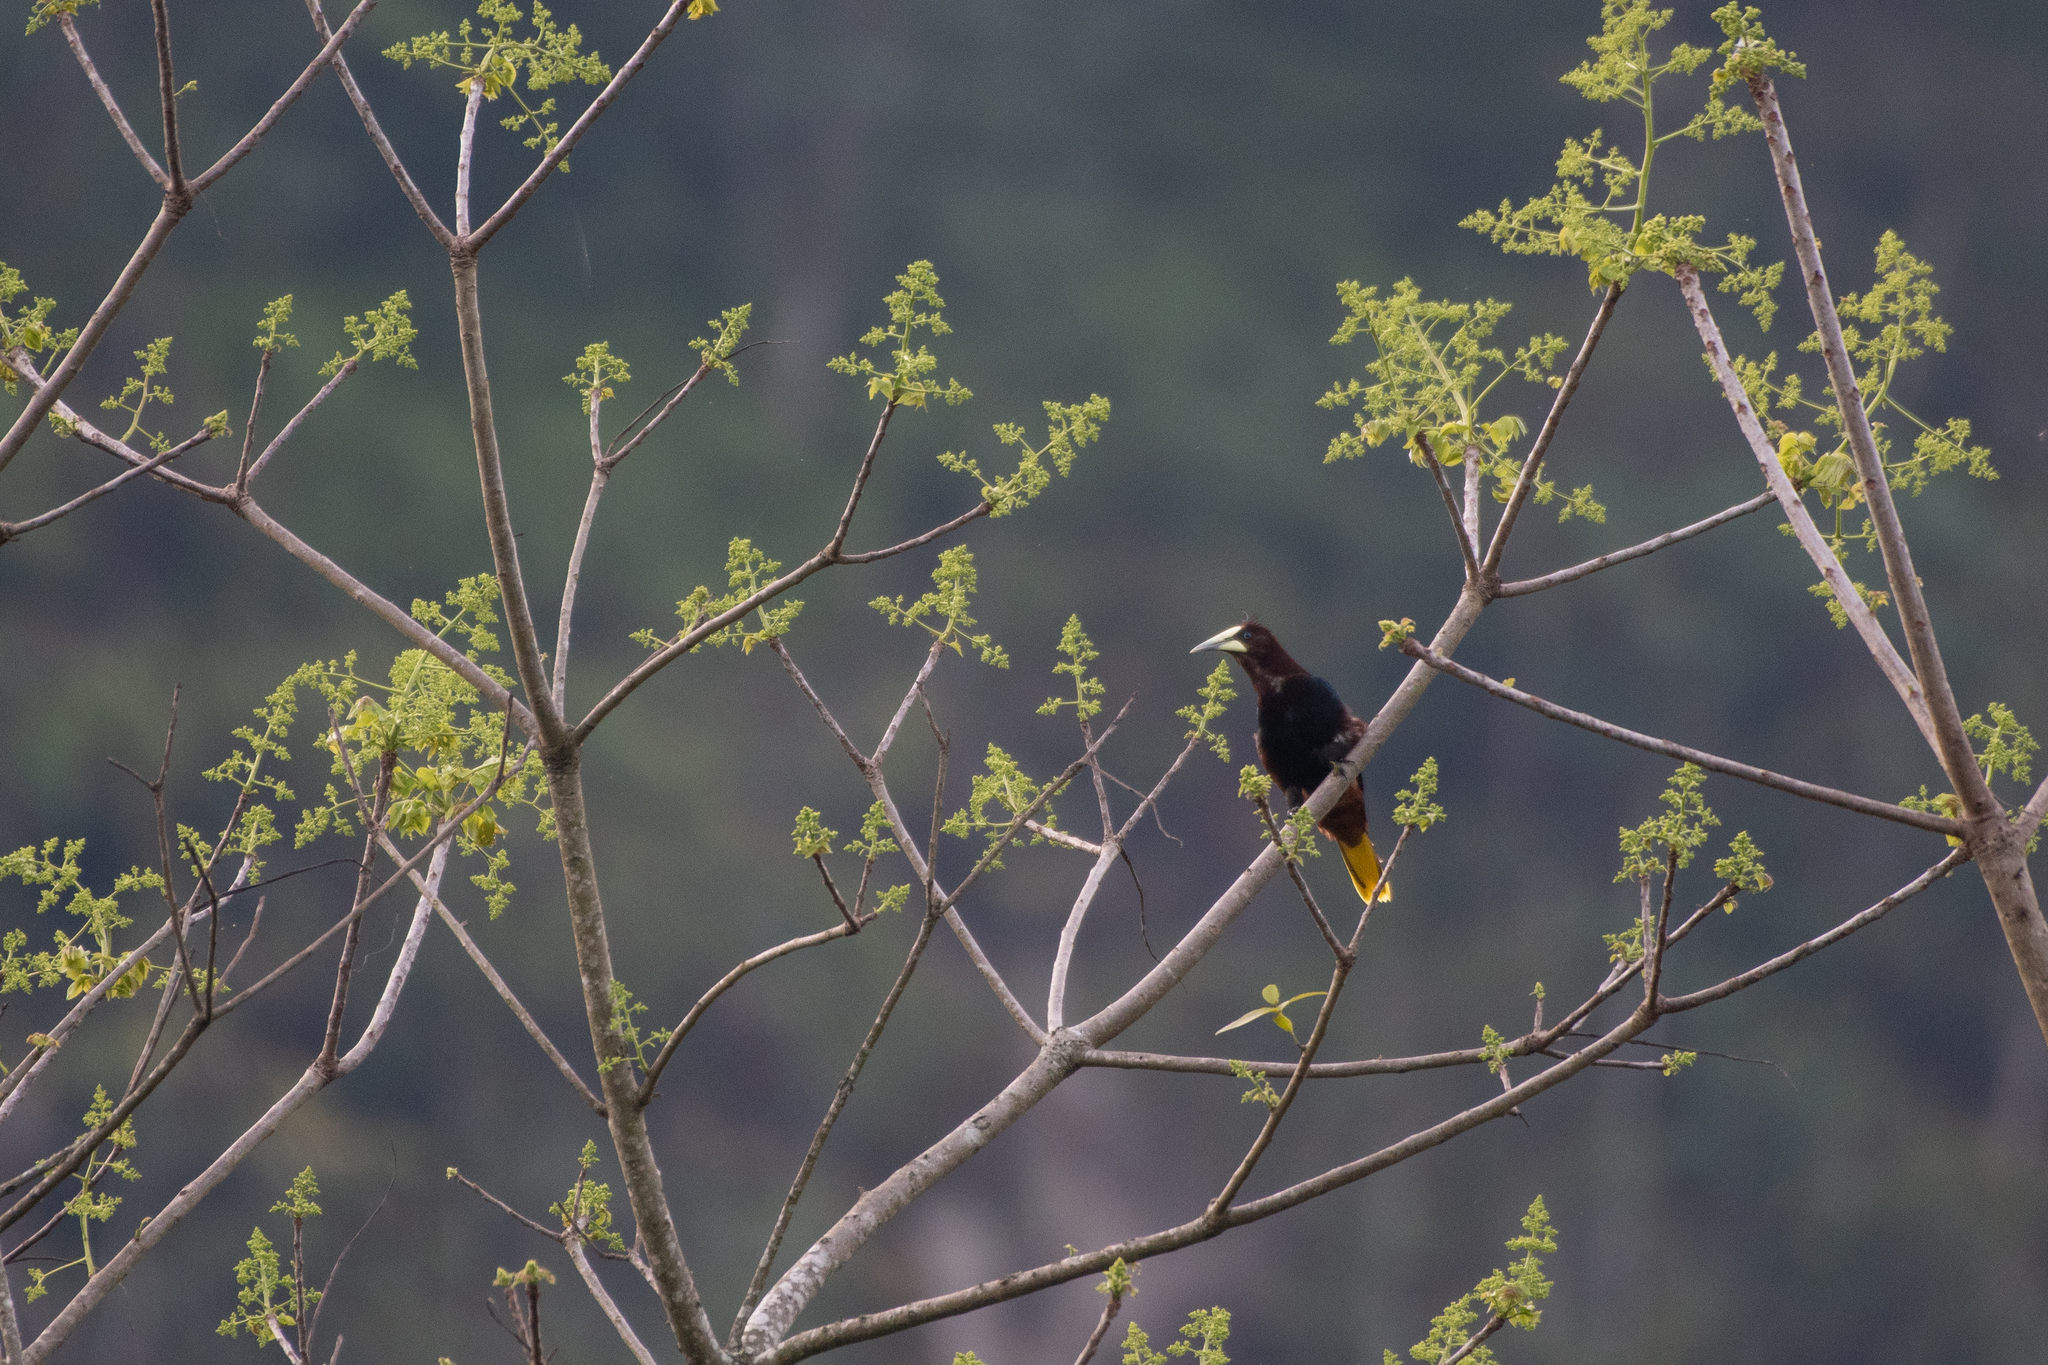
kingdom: Animalia
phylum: Chordata
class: Aves
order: Passeriformes
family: Icteridae
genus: Psarocolius
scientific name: Psarocolius wagleri
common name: Chestnut-headed oropendola
